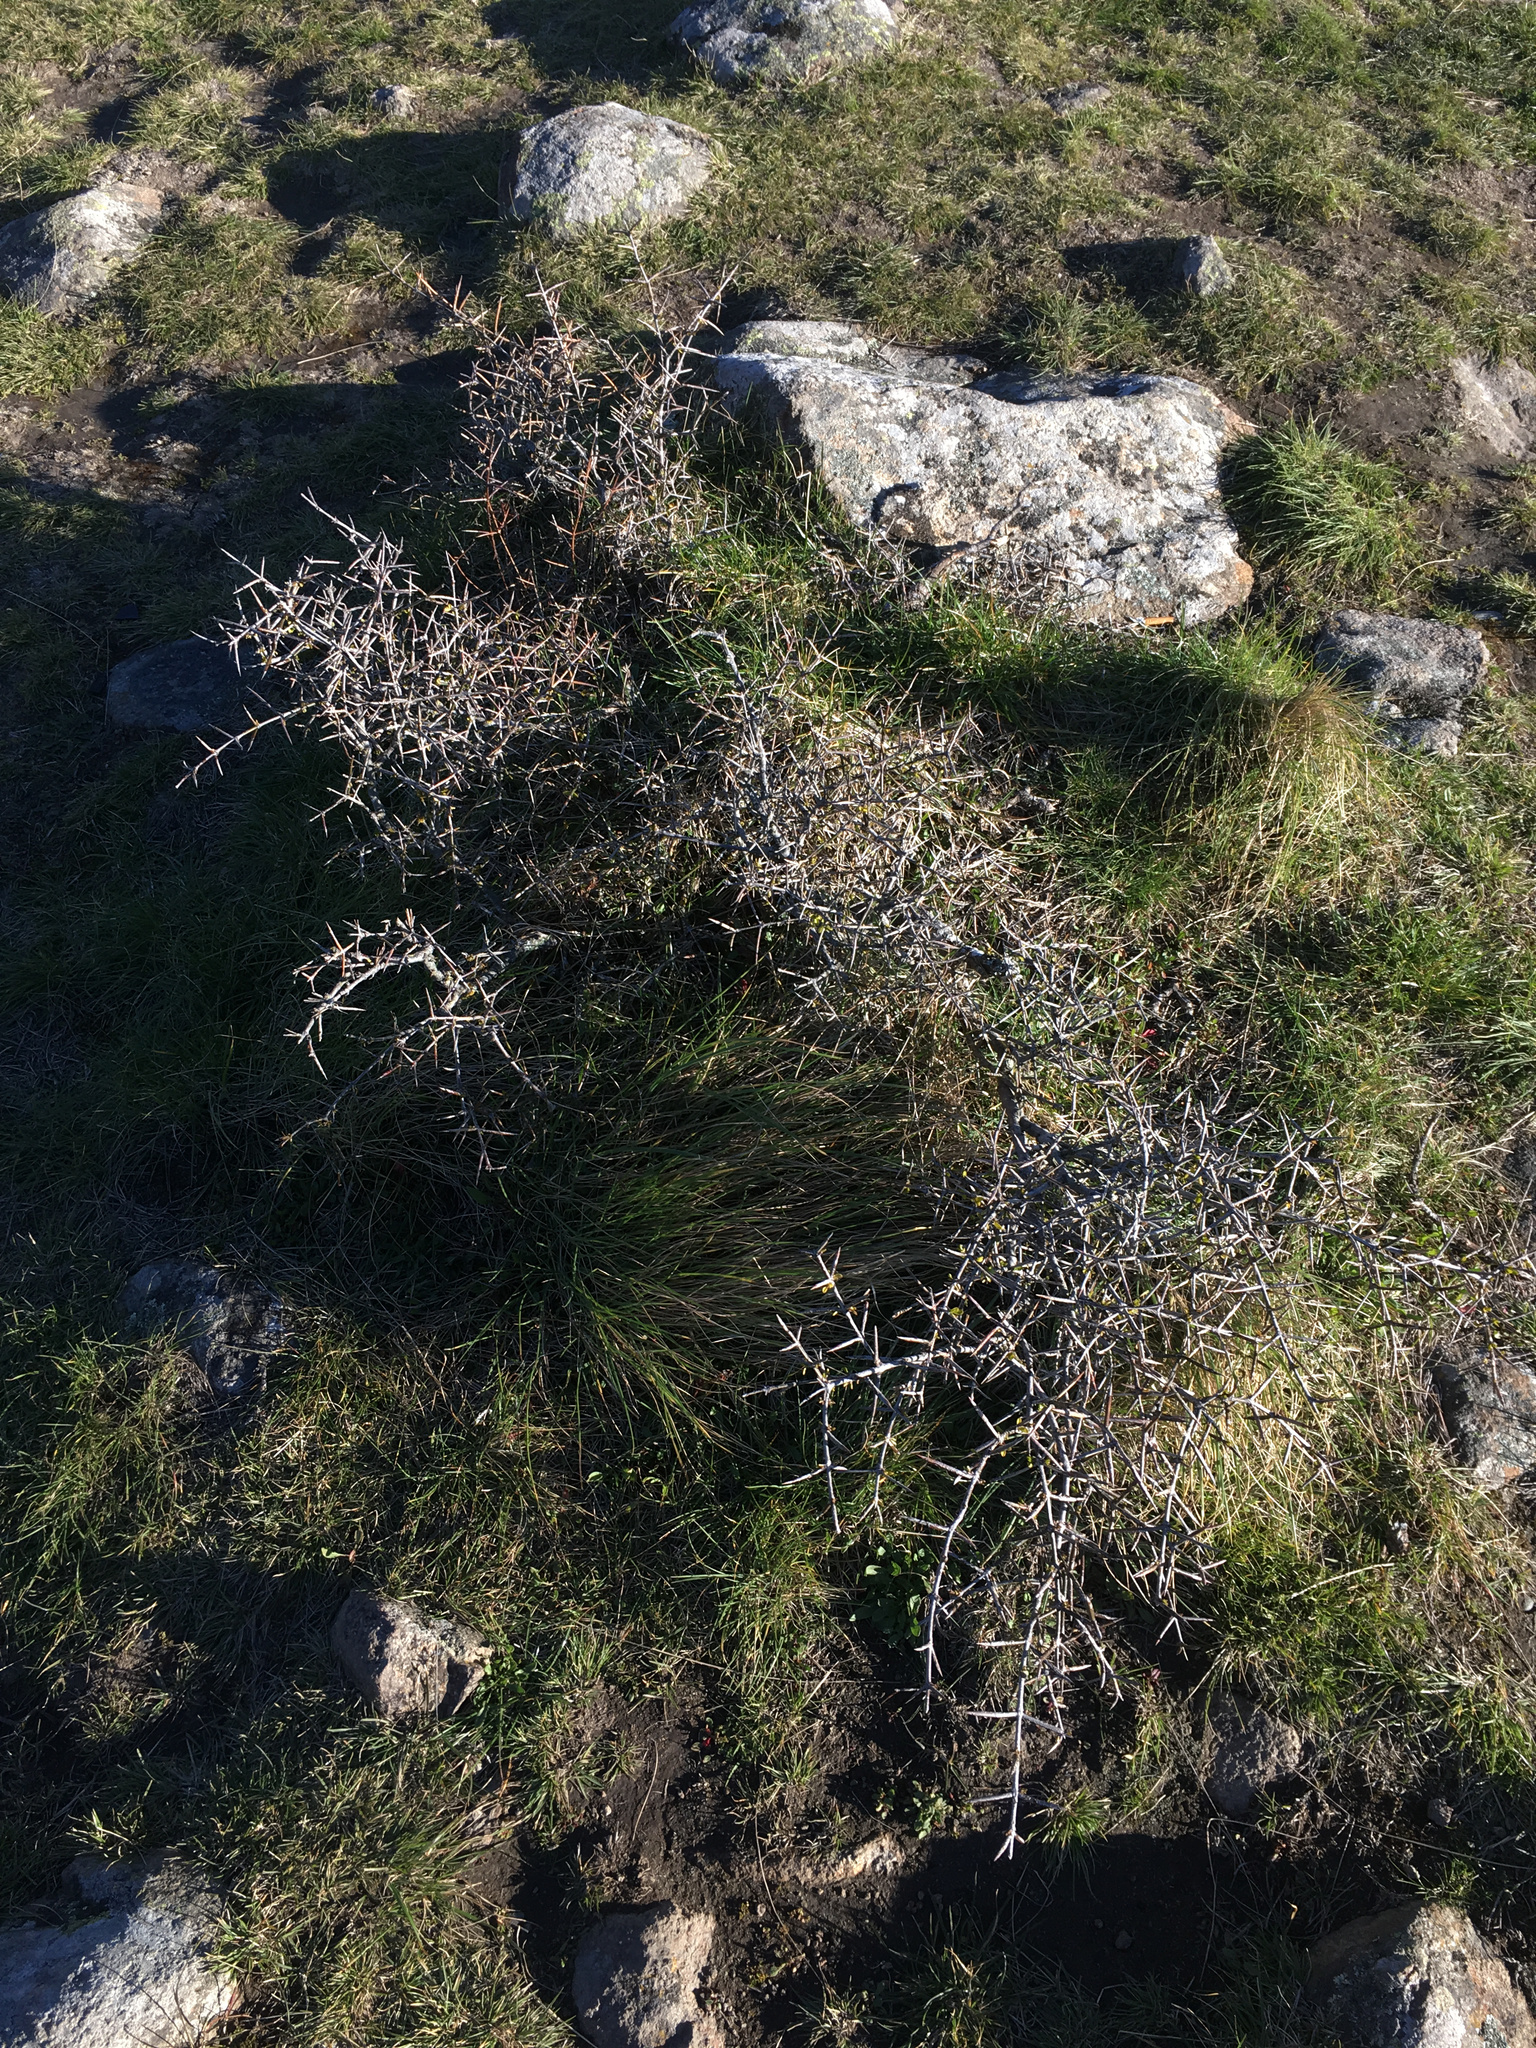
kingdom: Plantae
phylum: Tracheophyta
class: Magnoliopsida
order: Rosales
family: Rhamnaceae
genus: Discaria
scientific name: Discaria toumatou
